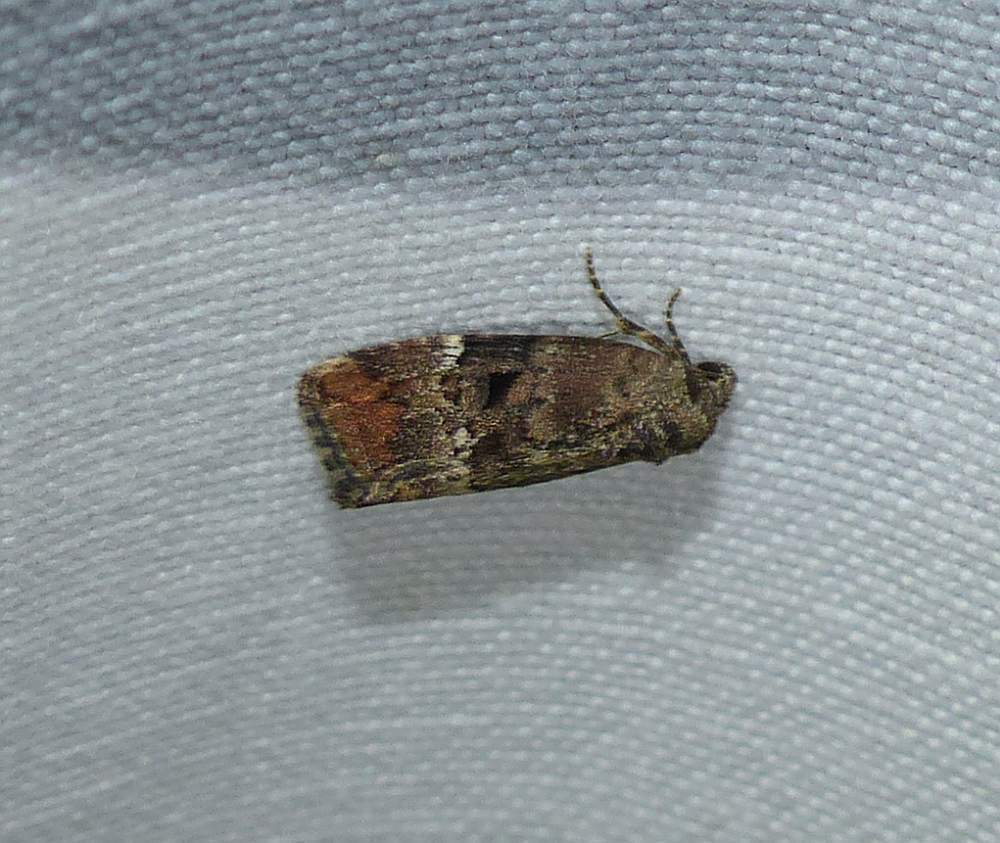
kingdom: Animalia
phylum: Arthropoda
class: Insecta
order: Lepidoptera
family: Noctuidae
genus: Elaphria
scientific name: Elaphria versicolor
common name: Fir harlequin
